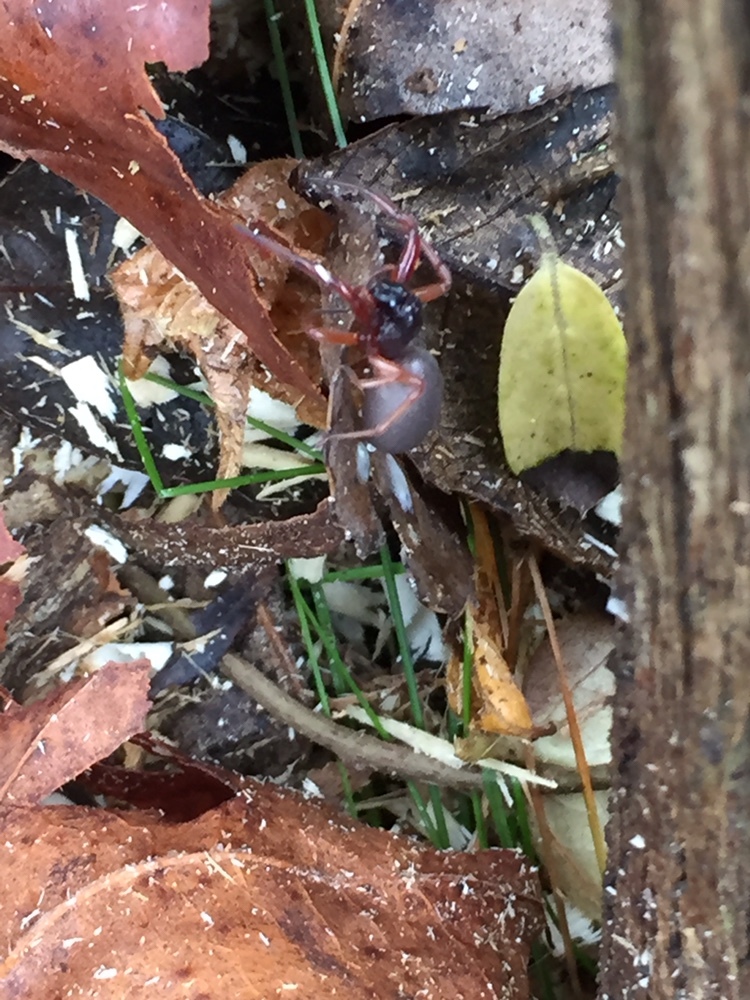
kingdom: Animalia
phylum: Arthropoda
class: Arachnida
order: Araneae
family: Trachelidae
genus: Trachelas
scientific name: Trachelas tranquillus
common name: Broad-faced sac spider
